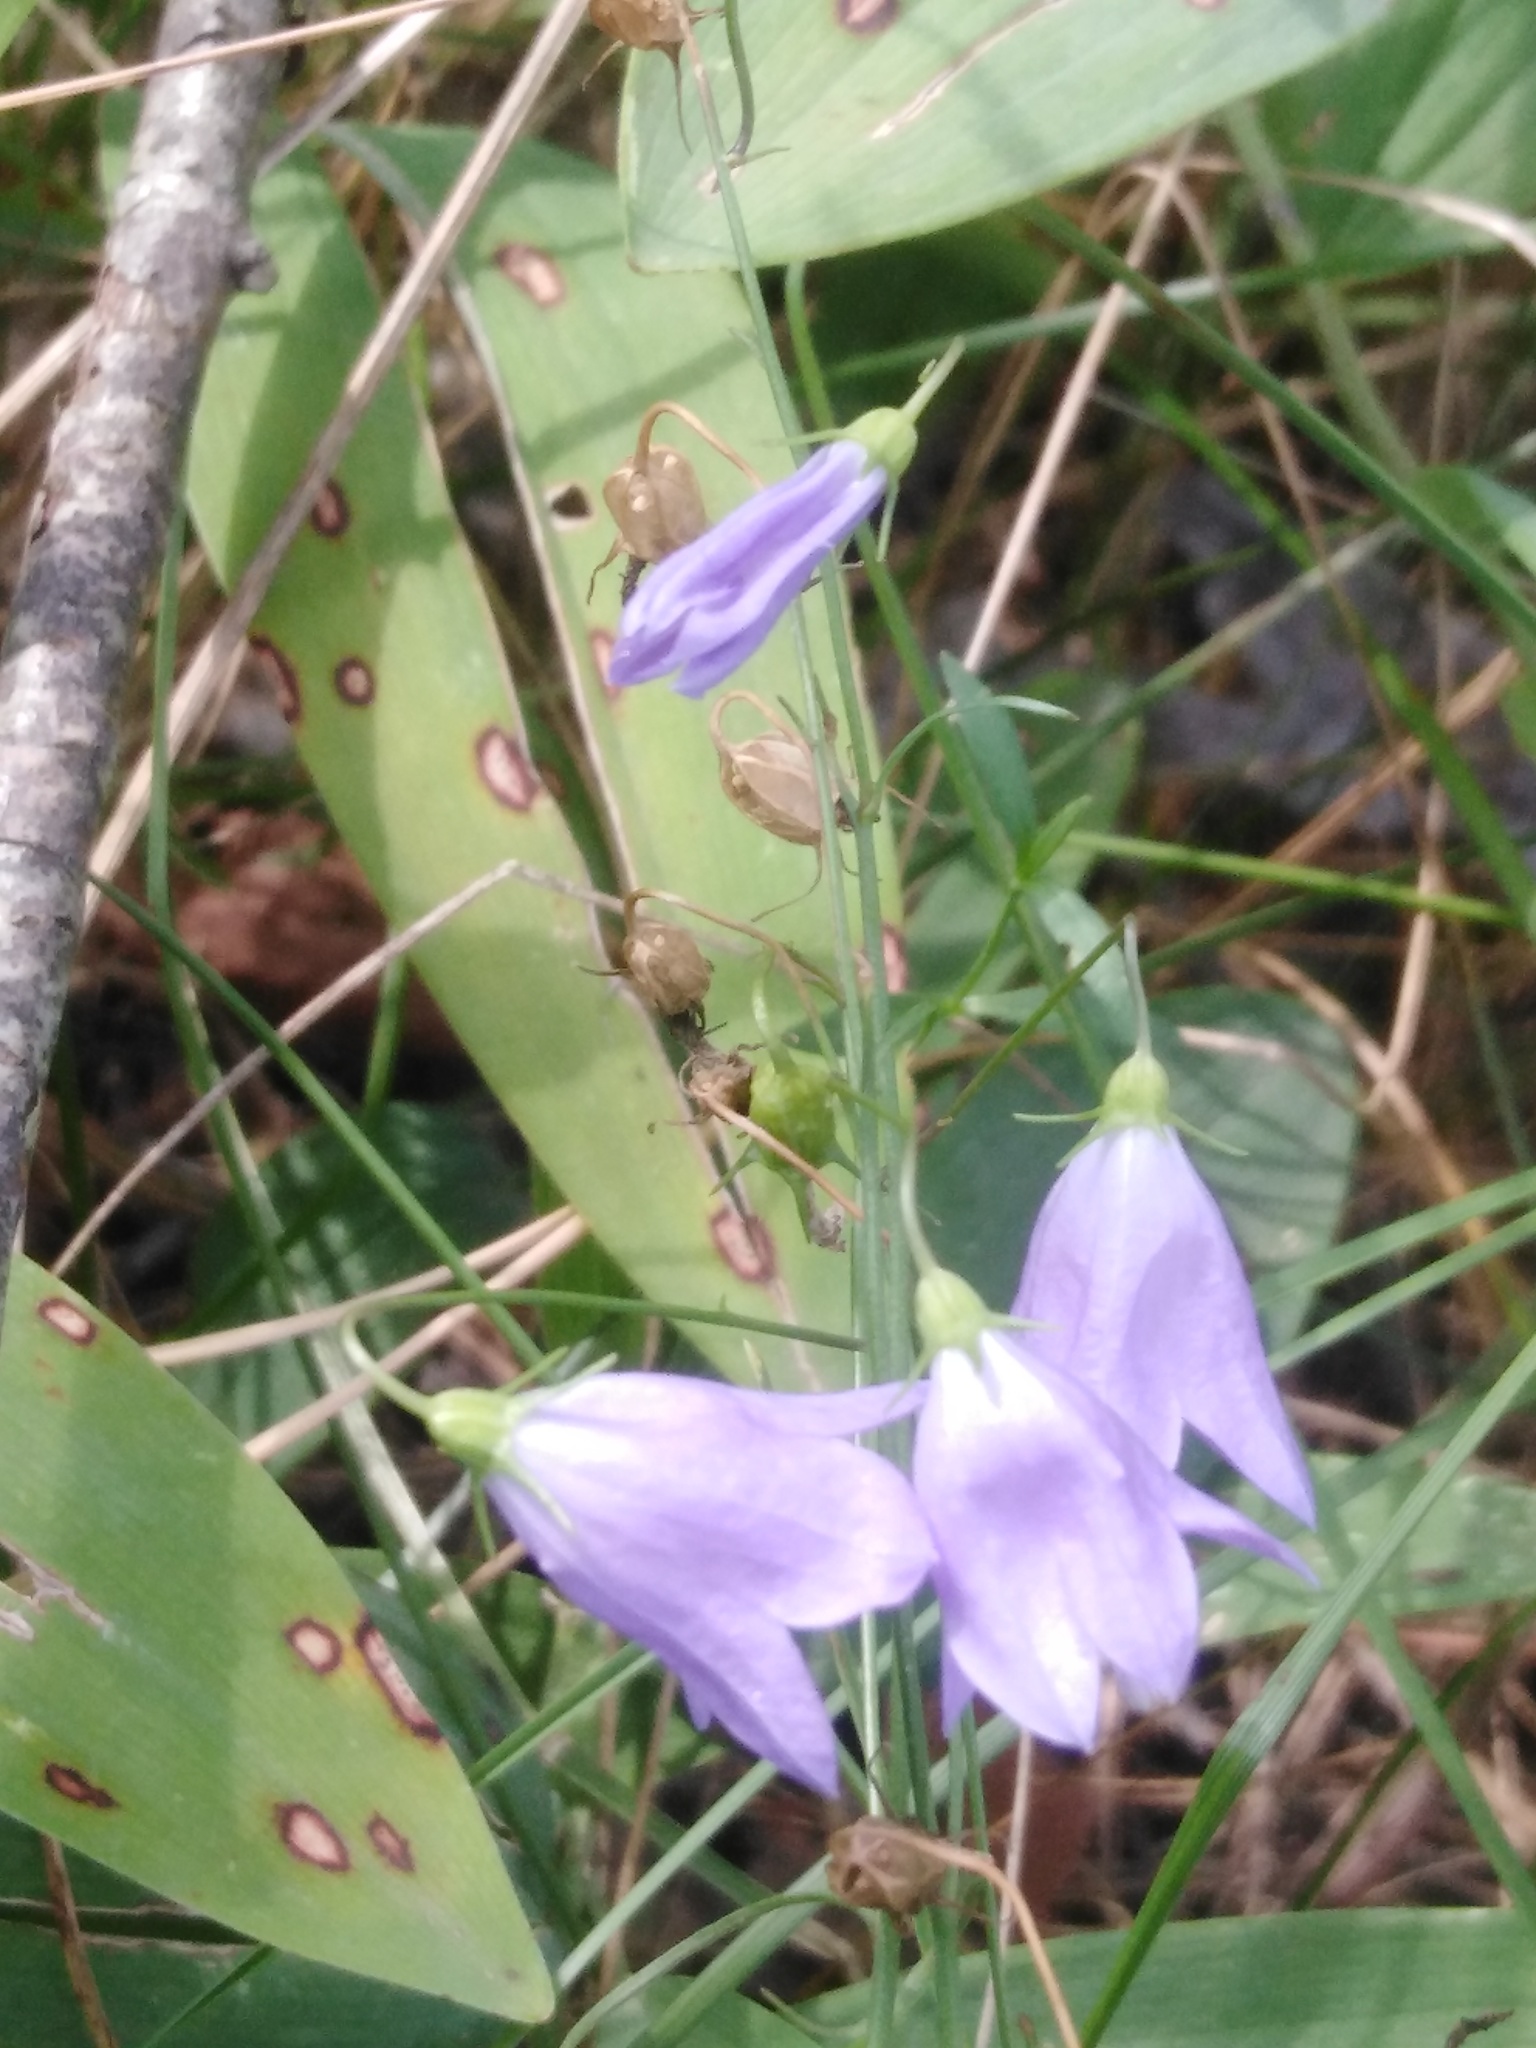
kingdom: Plantae
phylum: Tracheophyta
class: Magnoliopsida
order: Asterales
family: Campanulaceae
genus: Campanula
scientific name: Campanula rotundifolia
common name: Harebell
